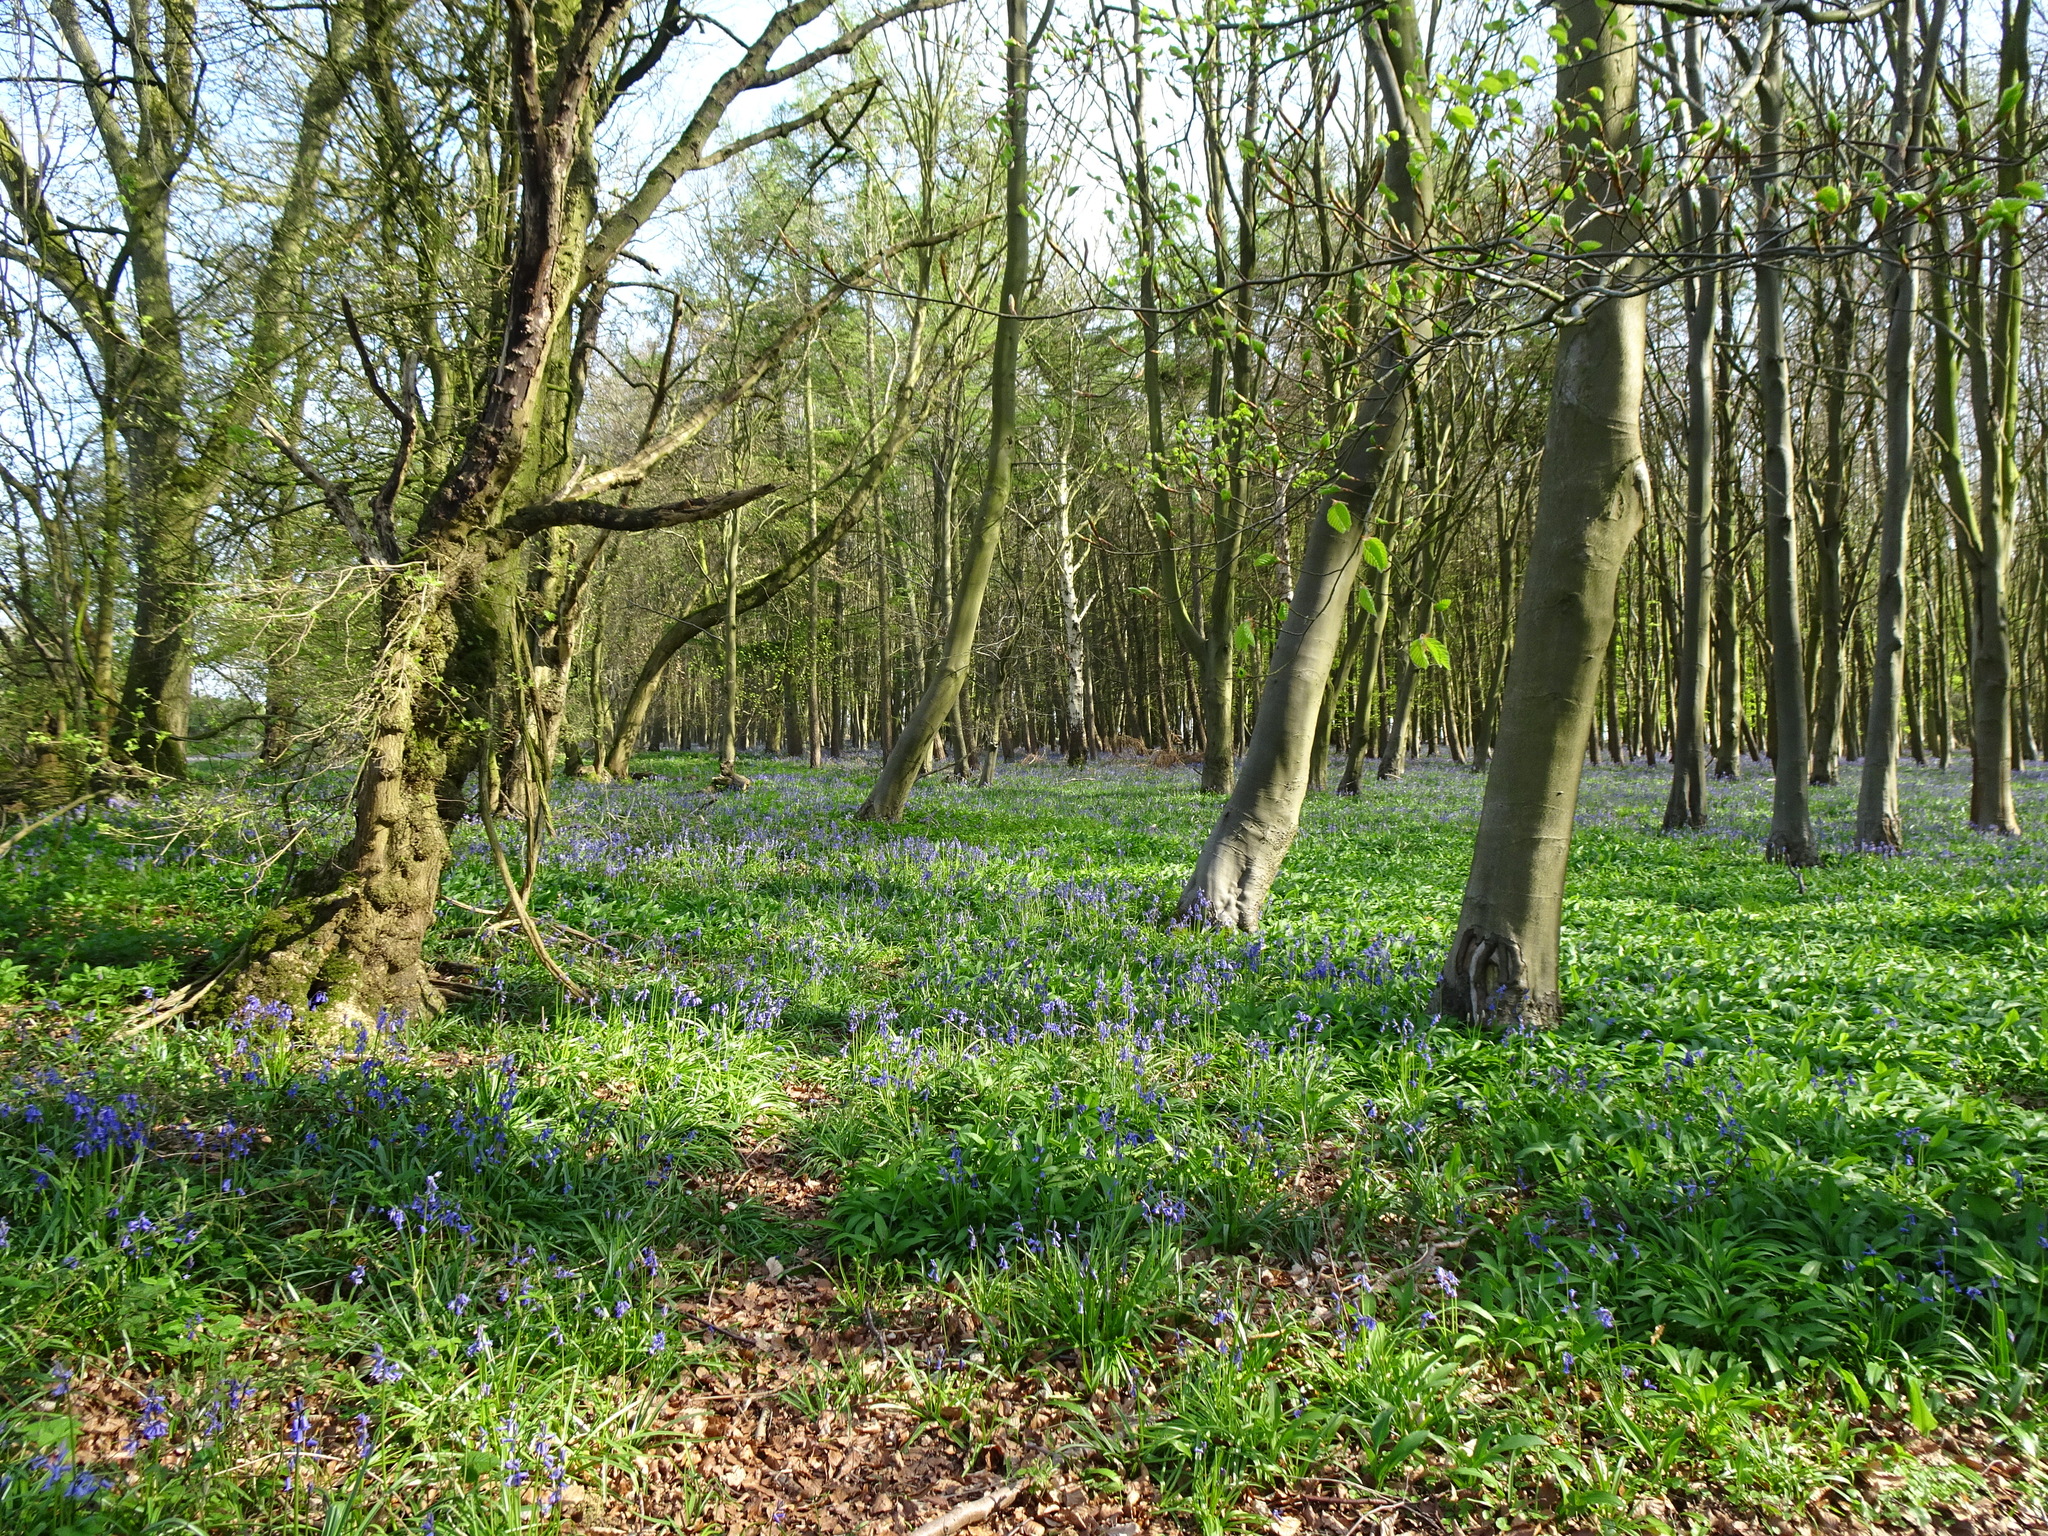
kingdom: Plantae
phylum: Tracheophyta
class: Liliopsida
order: Asparagales
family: Asparagaceae
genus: Hyacinthoides
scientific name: Hyacinthoides non-scripta
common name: Bluebell
